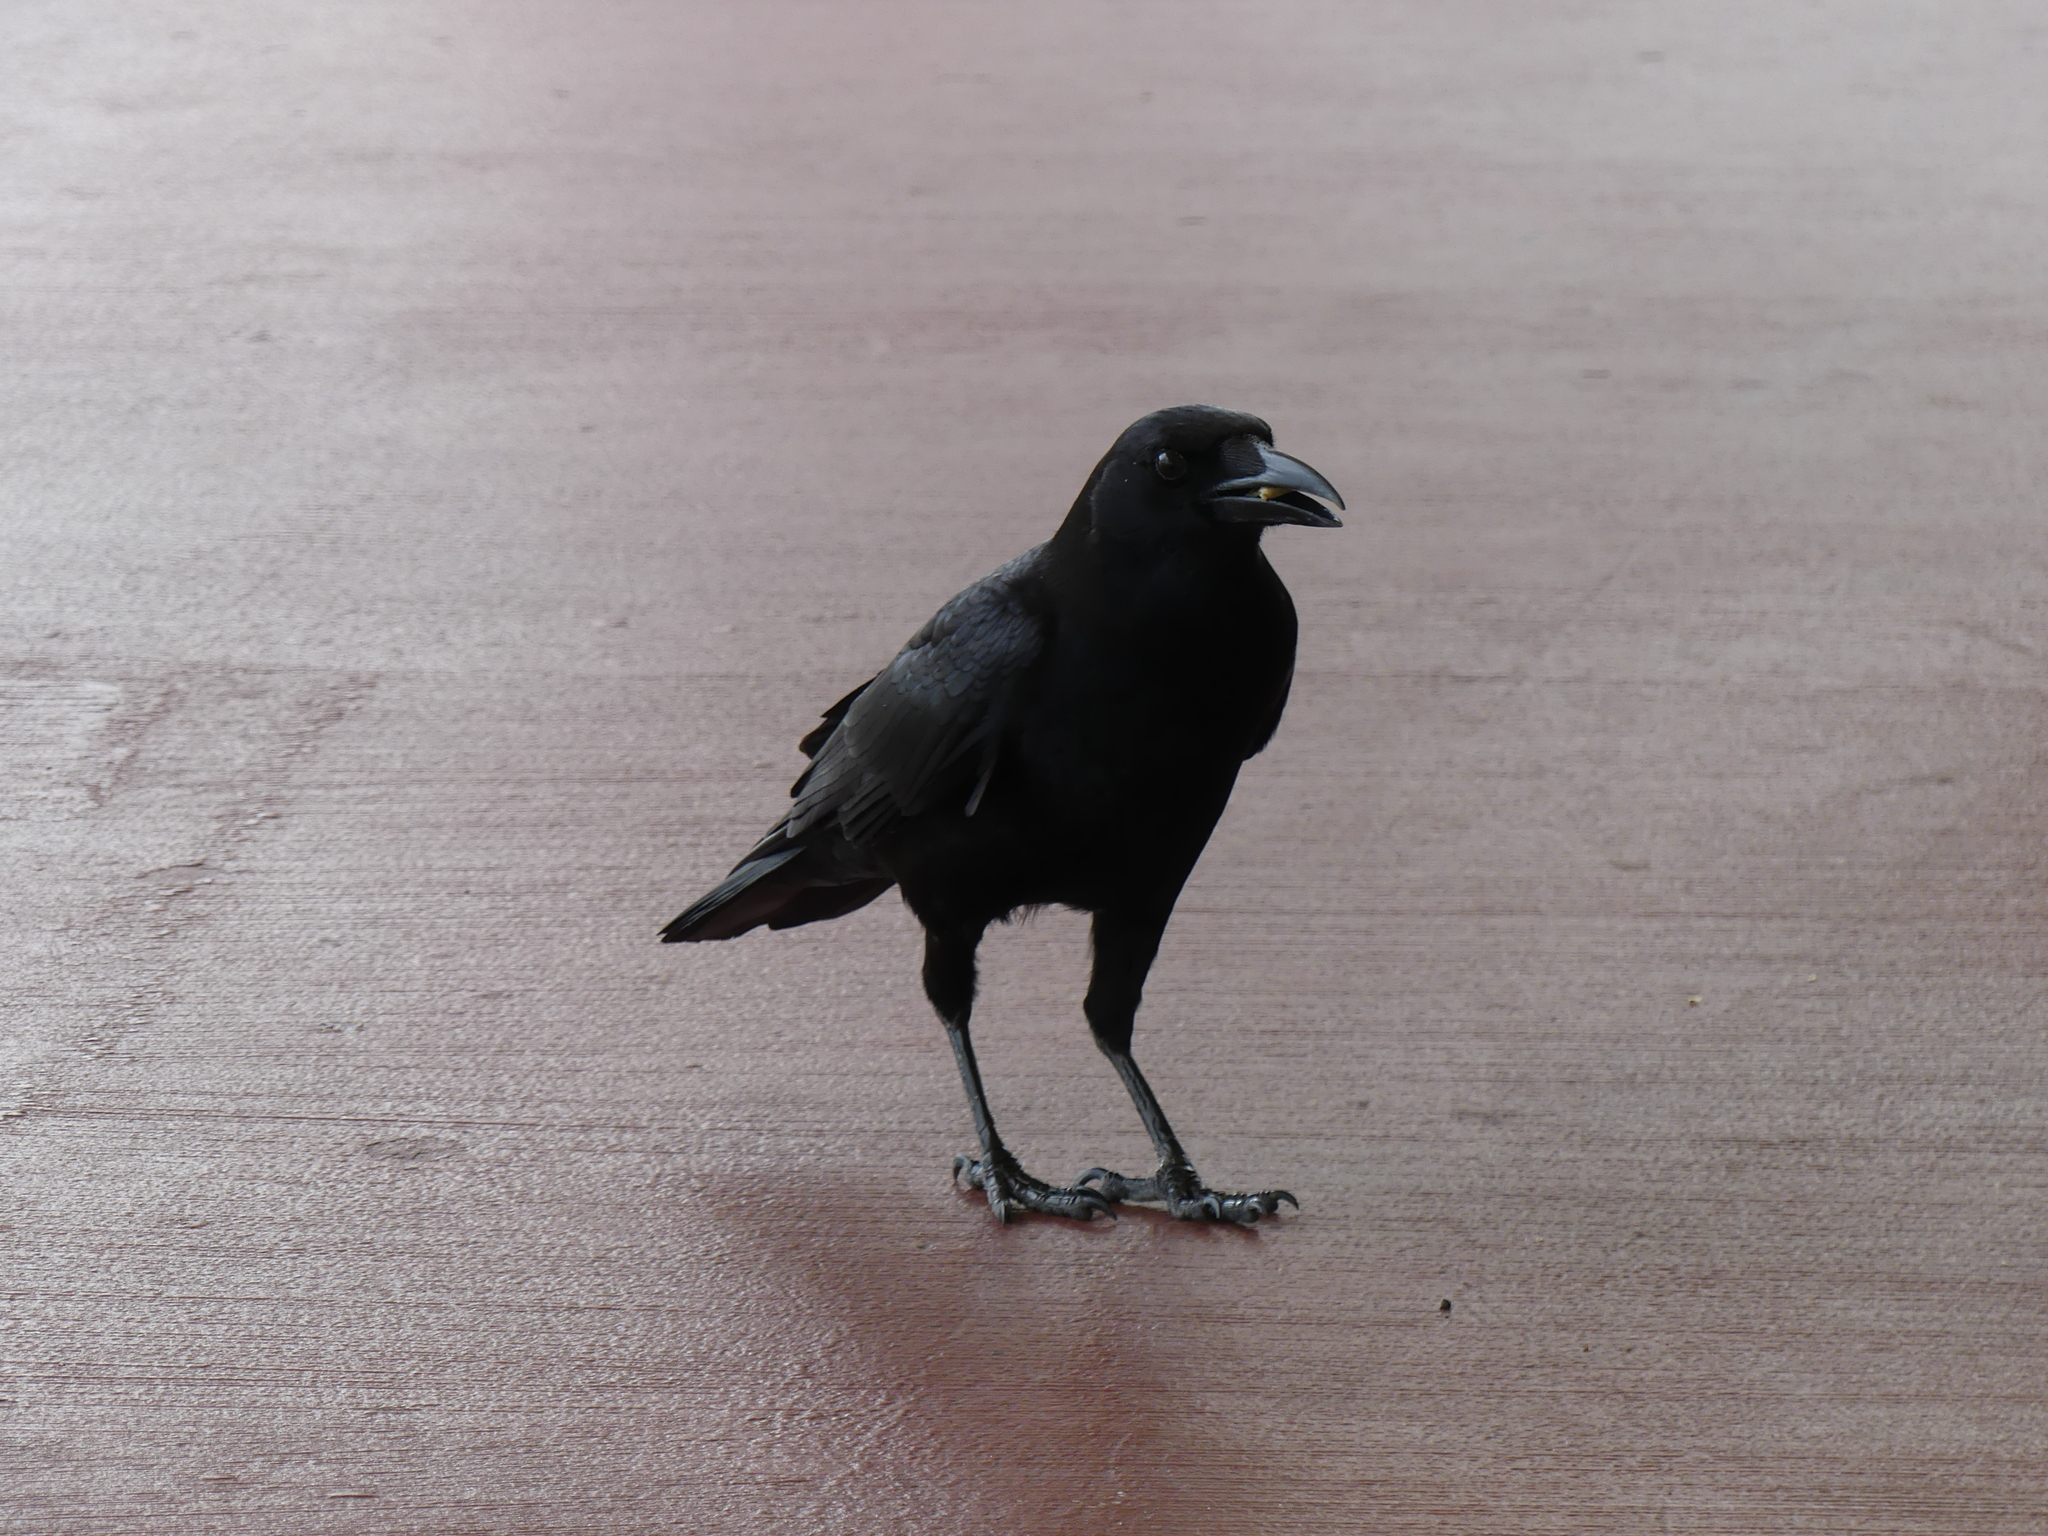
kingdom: Animalia
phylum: Chordata
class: Aves
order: Passeriformes
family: Corvidae
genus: Corvus
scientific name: Corvus brachyrhynchos
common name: American crow
